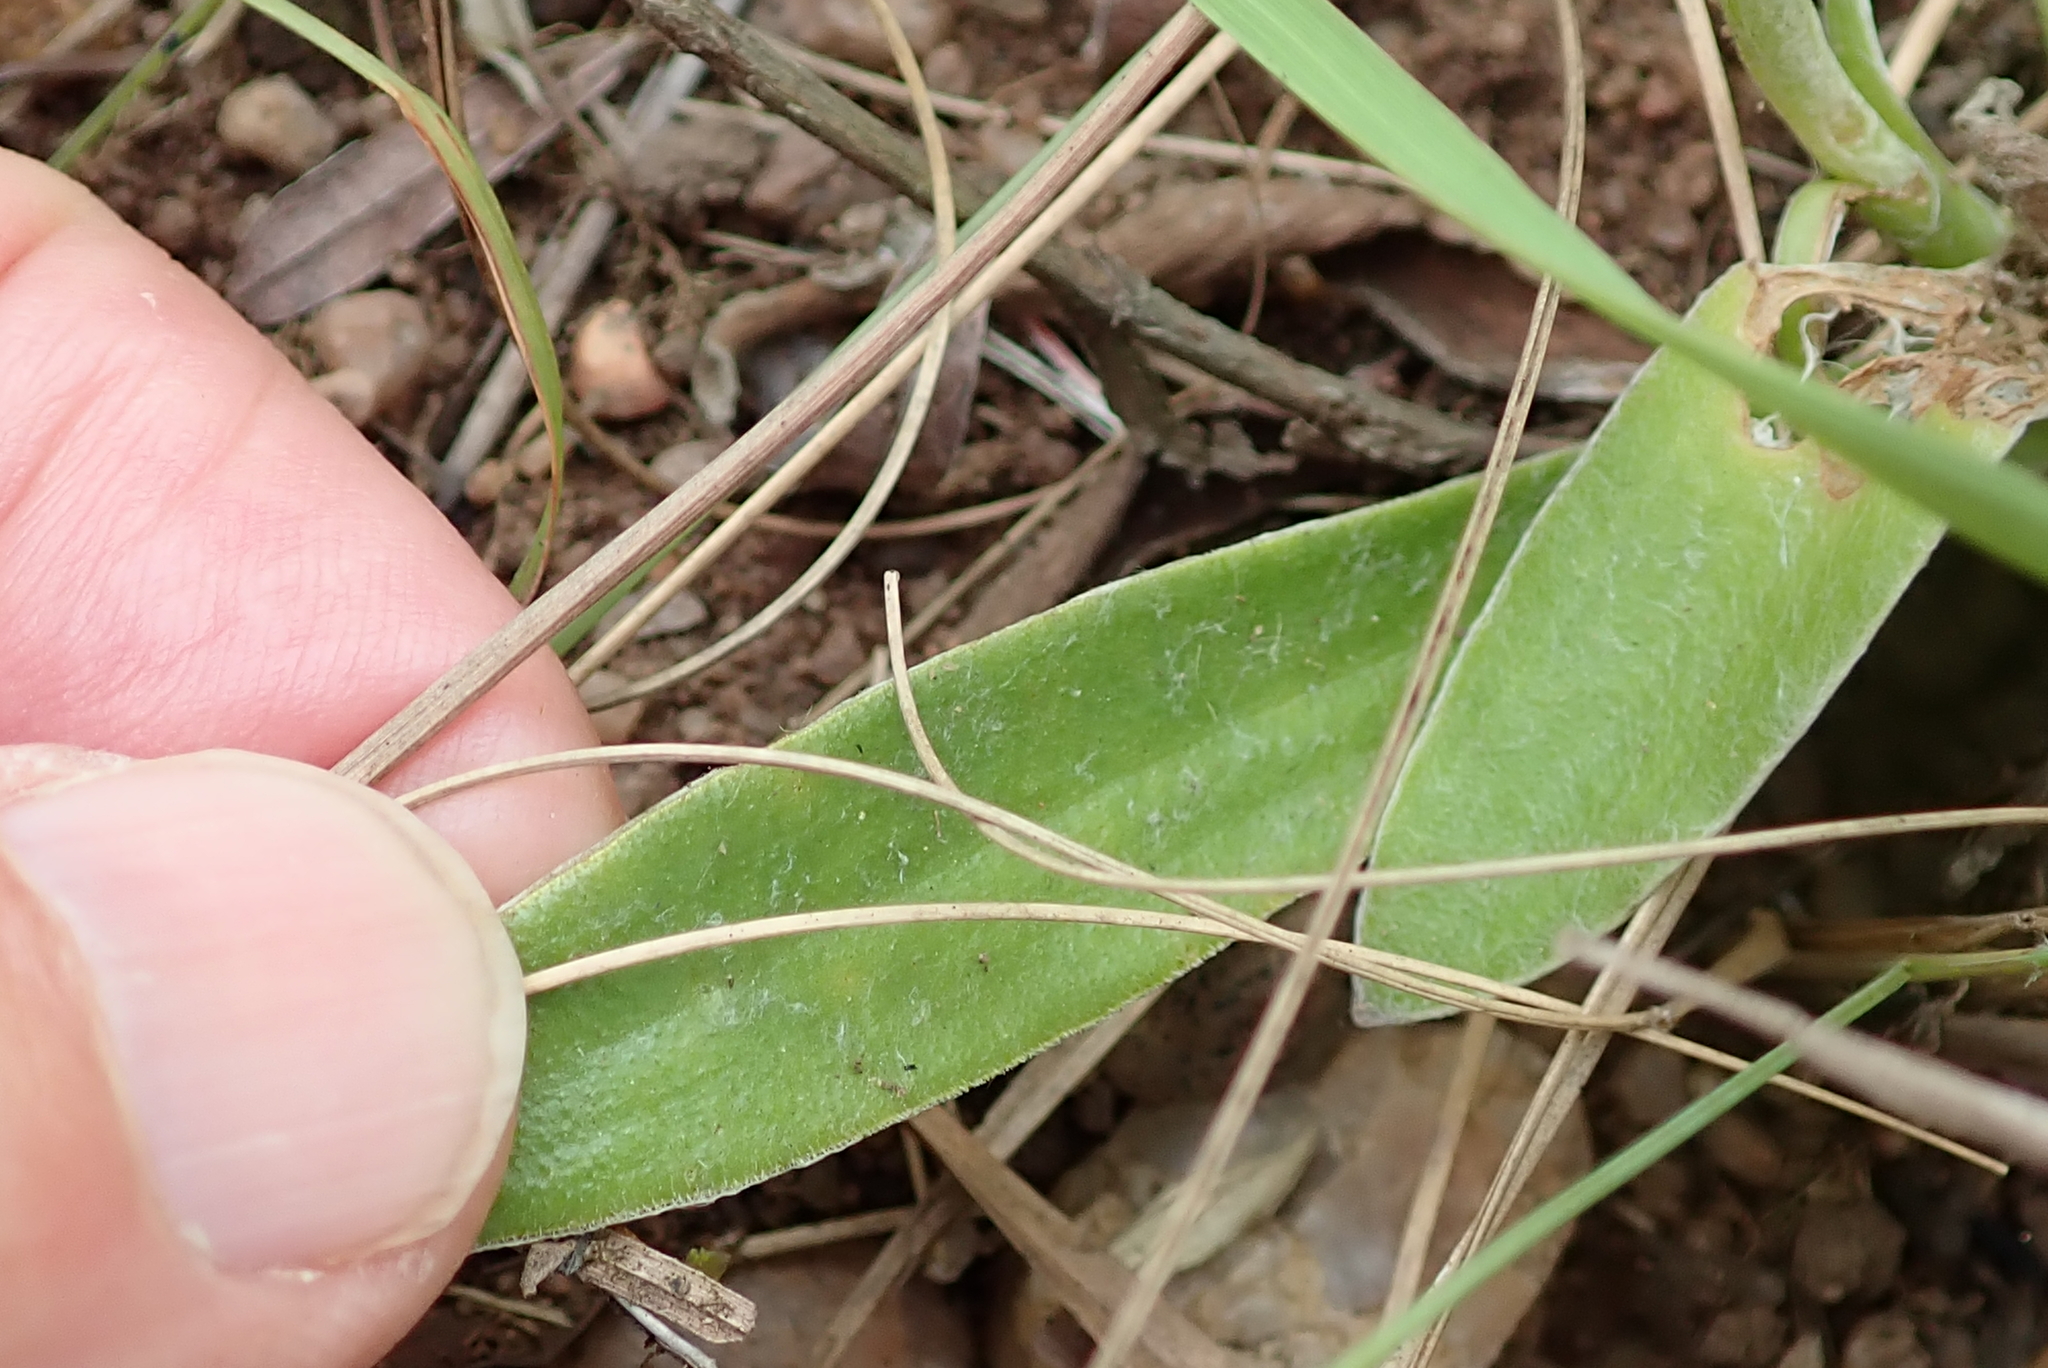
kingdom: Plantae
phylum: Tracheophyta
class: Magnoliopsida
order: Asterales
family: Asteraceae
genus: Helichrysum
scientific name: Helichrysum mixtum
